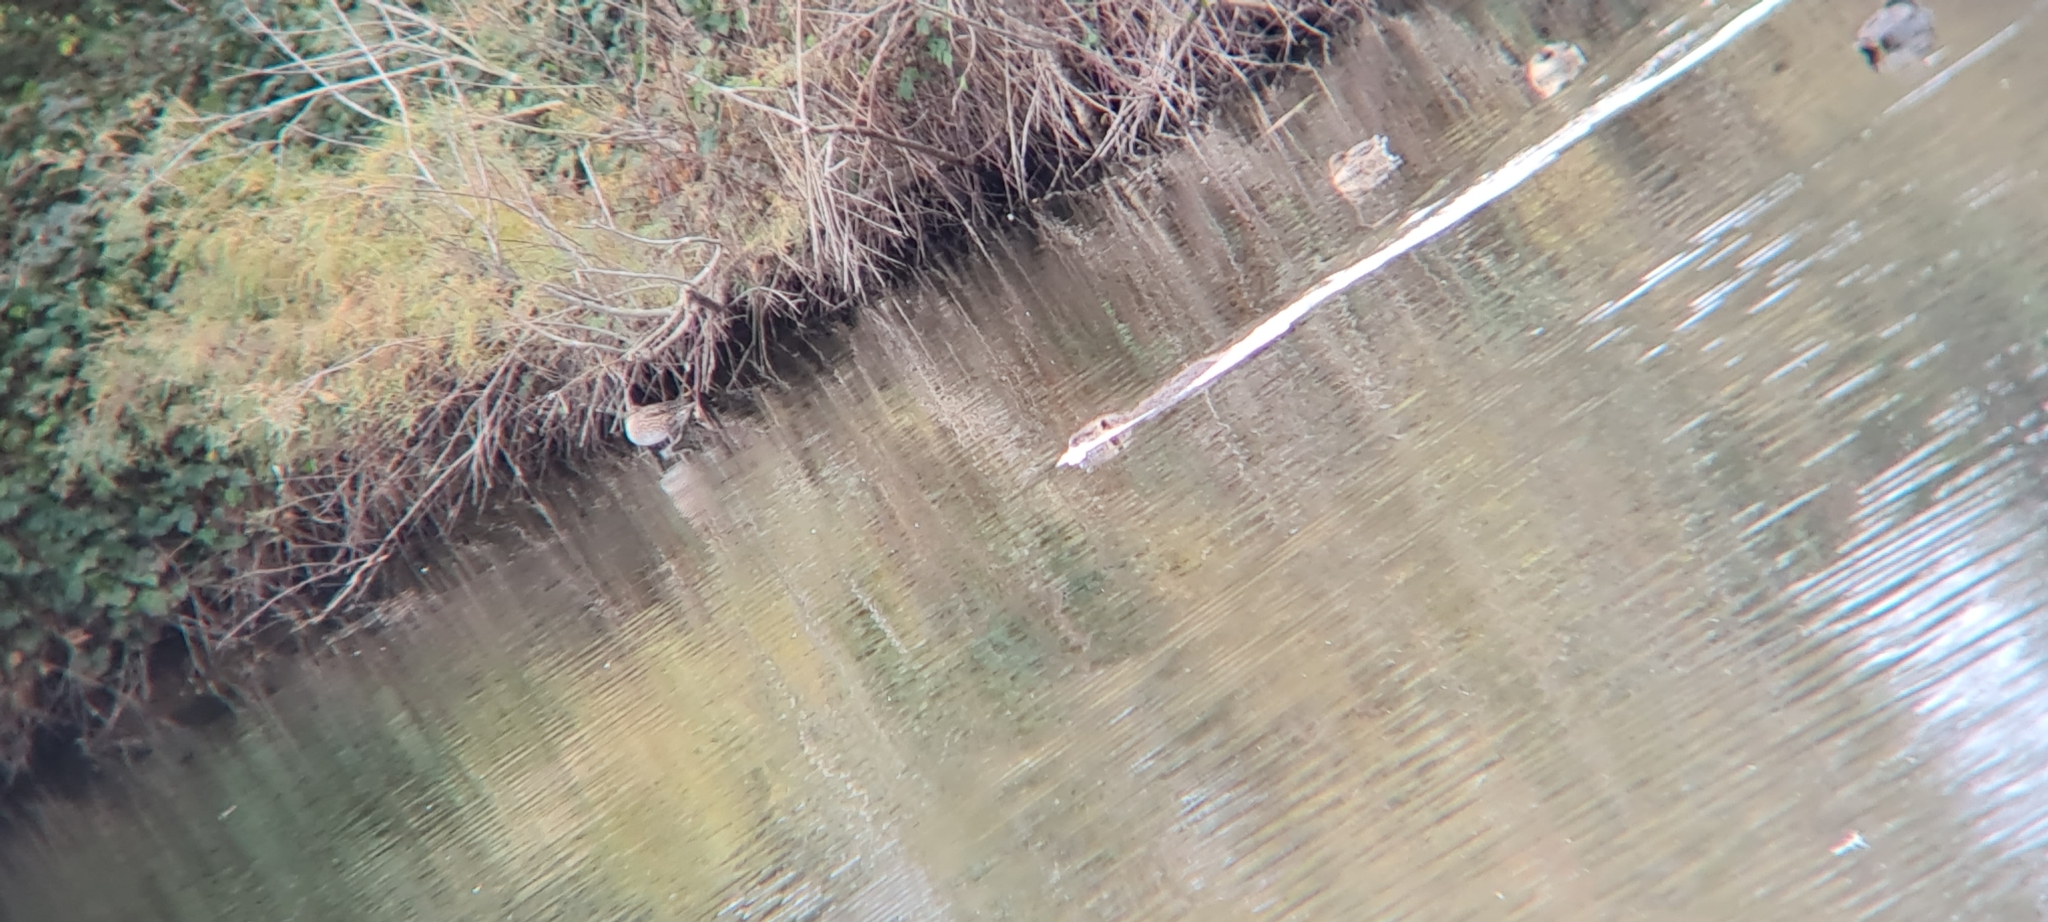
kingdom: Animalia
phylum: Chordata
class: Mammalia
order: Rodentia
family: Myocastoridae
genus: Myocastor
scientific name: Myocastor coypus
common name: Coypu
